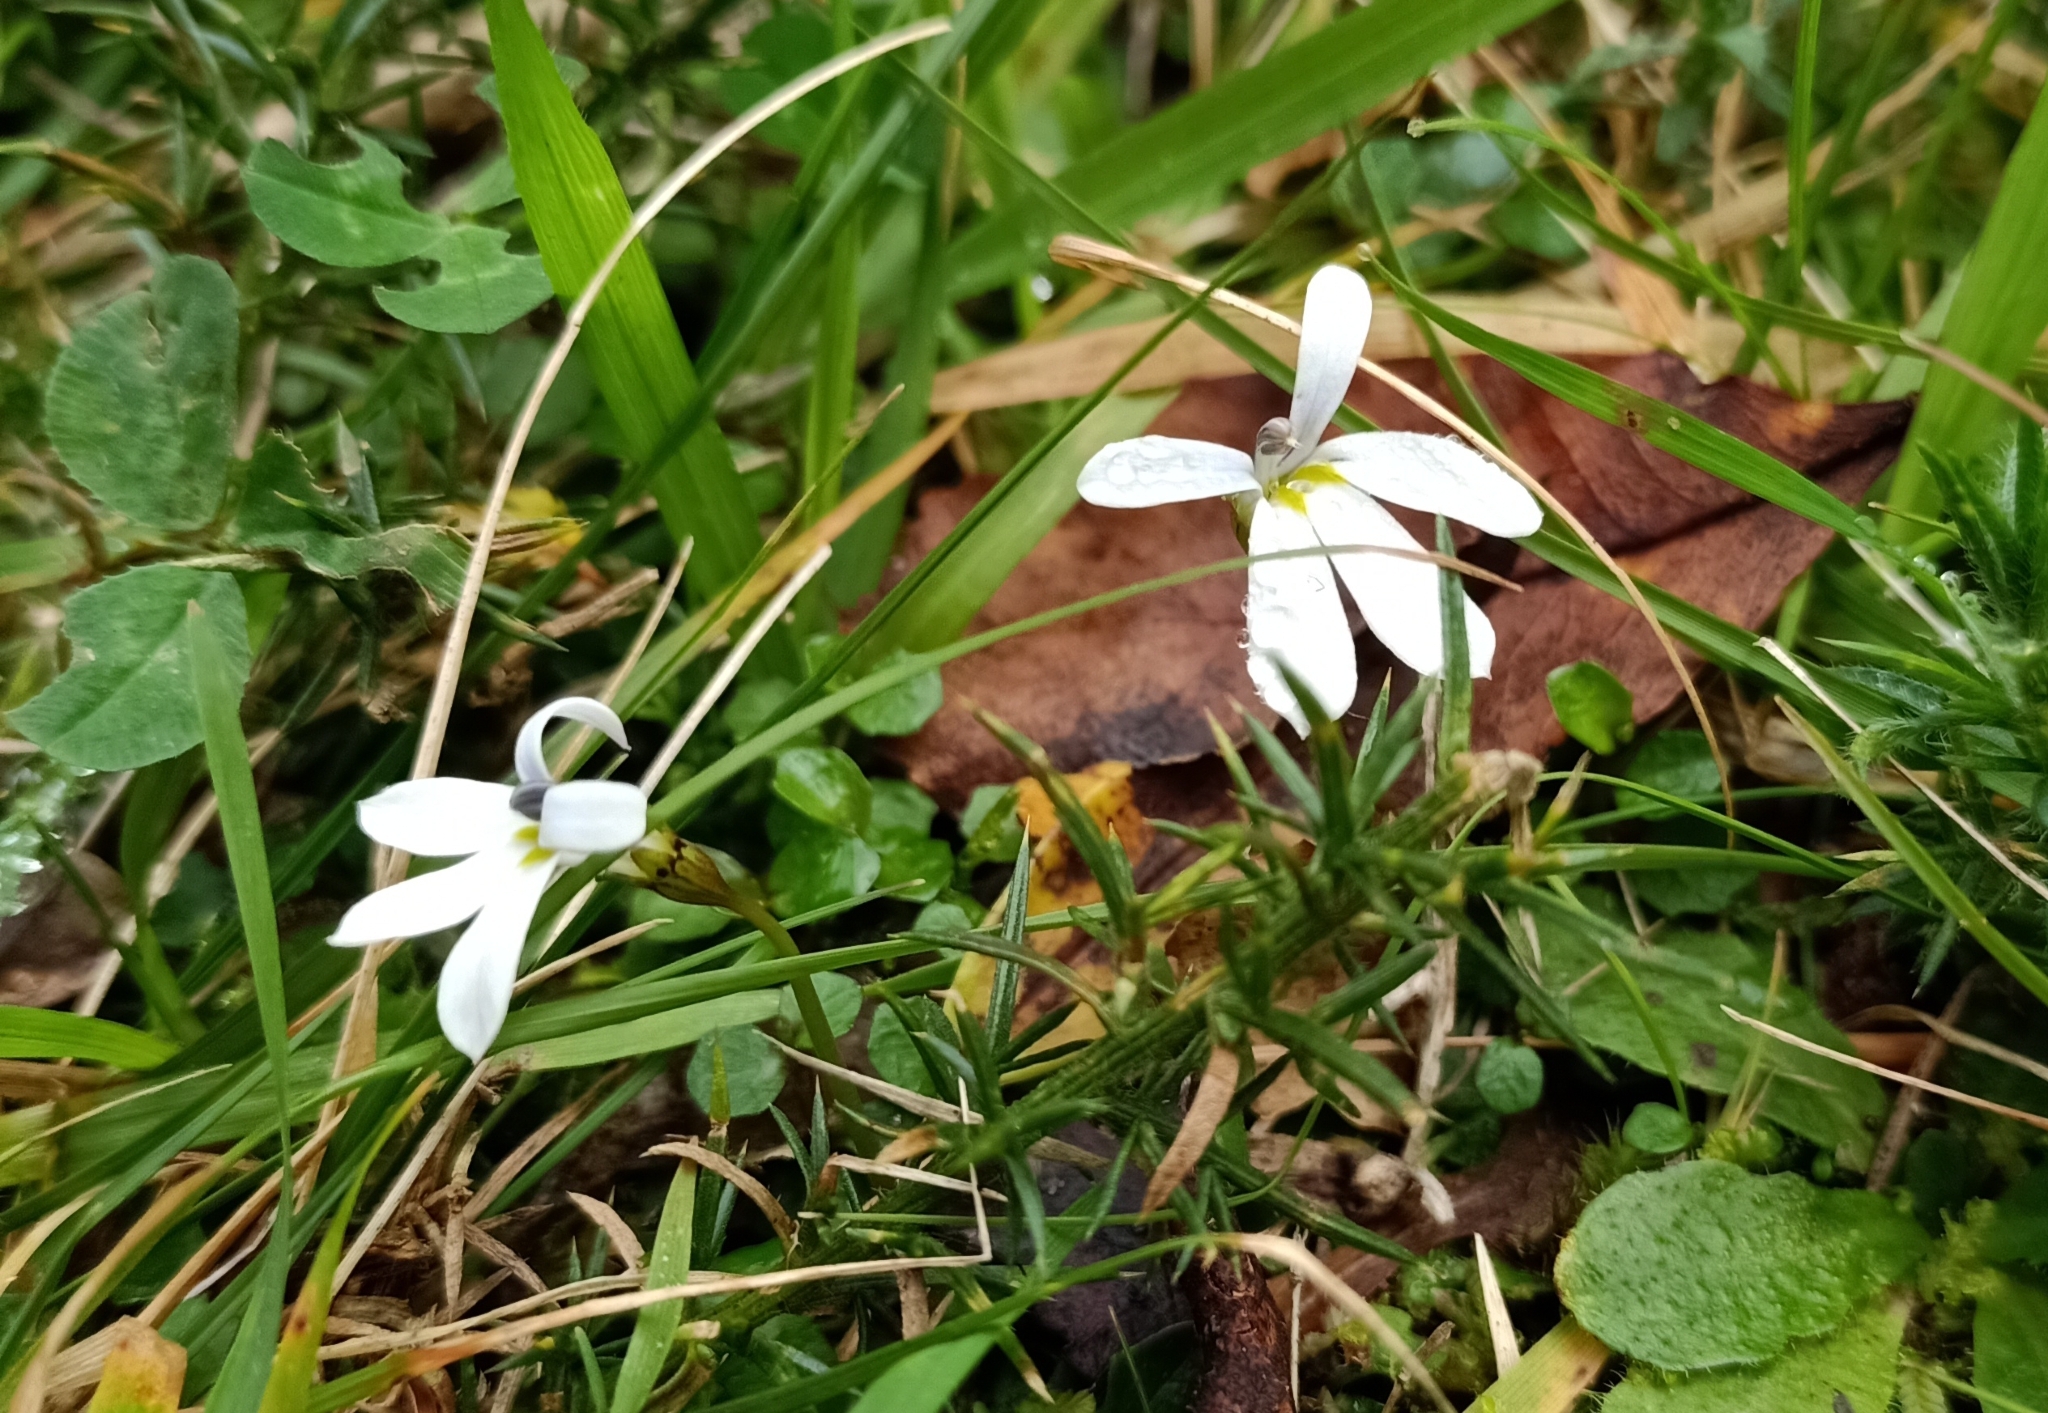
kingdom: Plantae
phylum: Tracheophyta
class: Magnoliopsida
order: Asterales
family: Campanulaceae
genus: Lobelia
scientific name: Lobelia angulata
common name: Lawn lobelia
